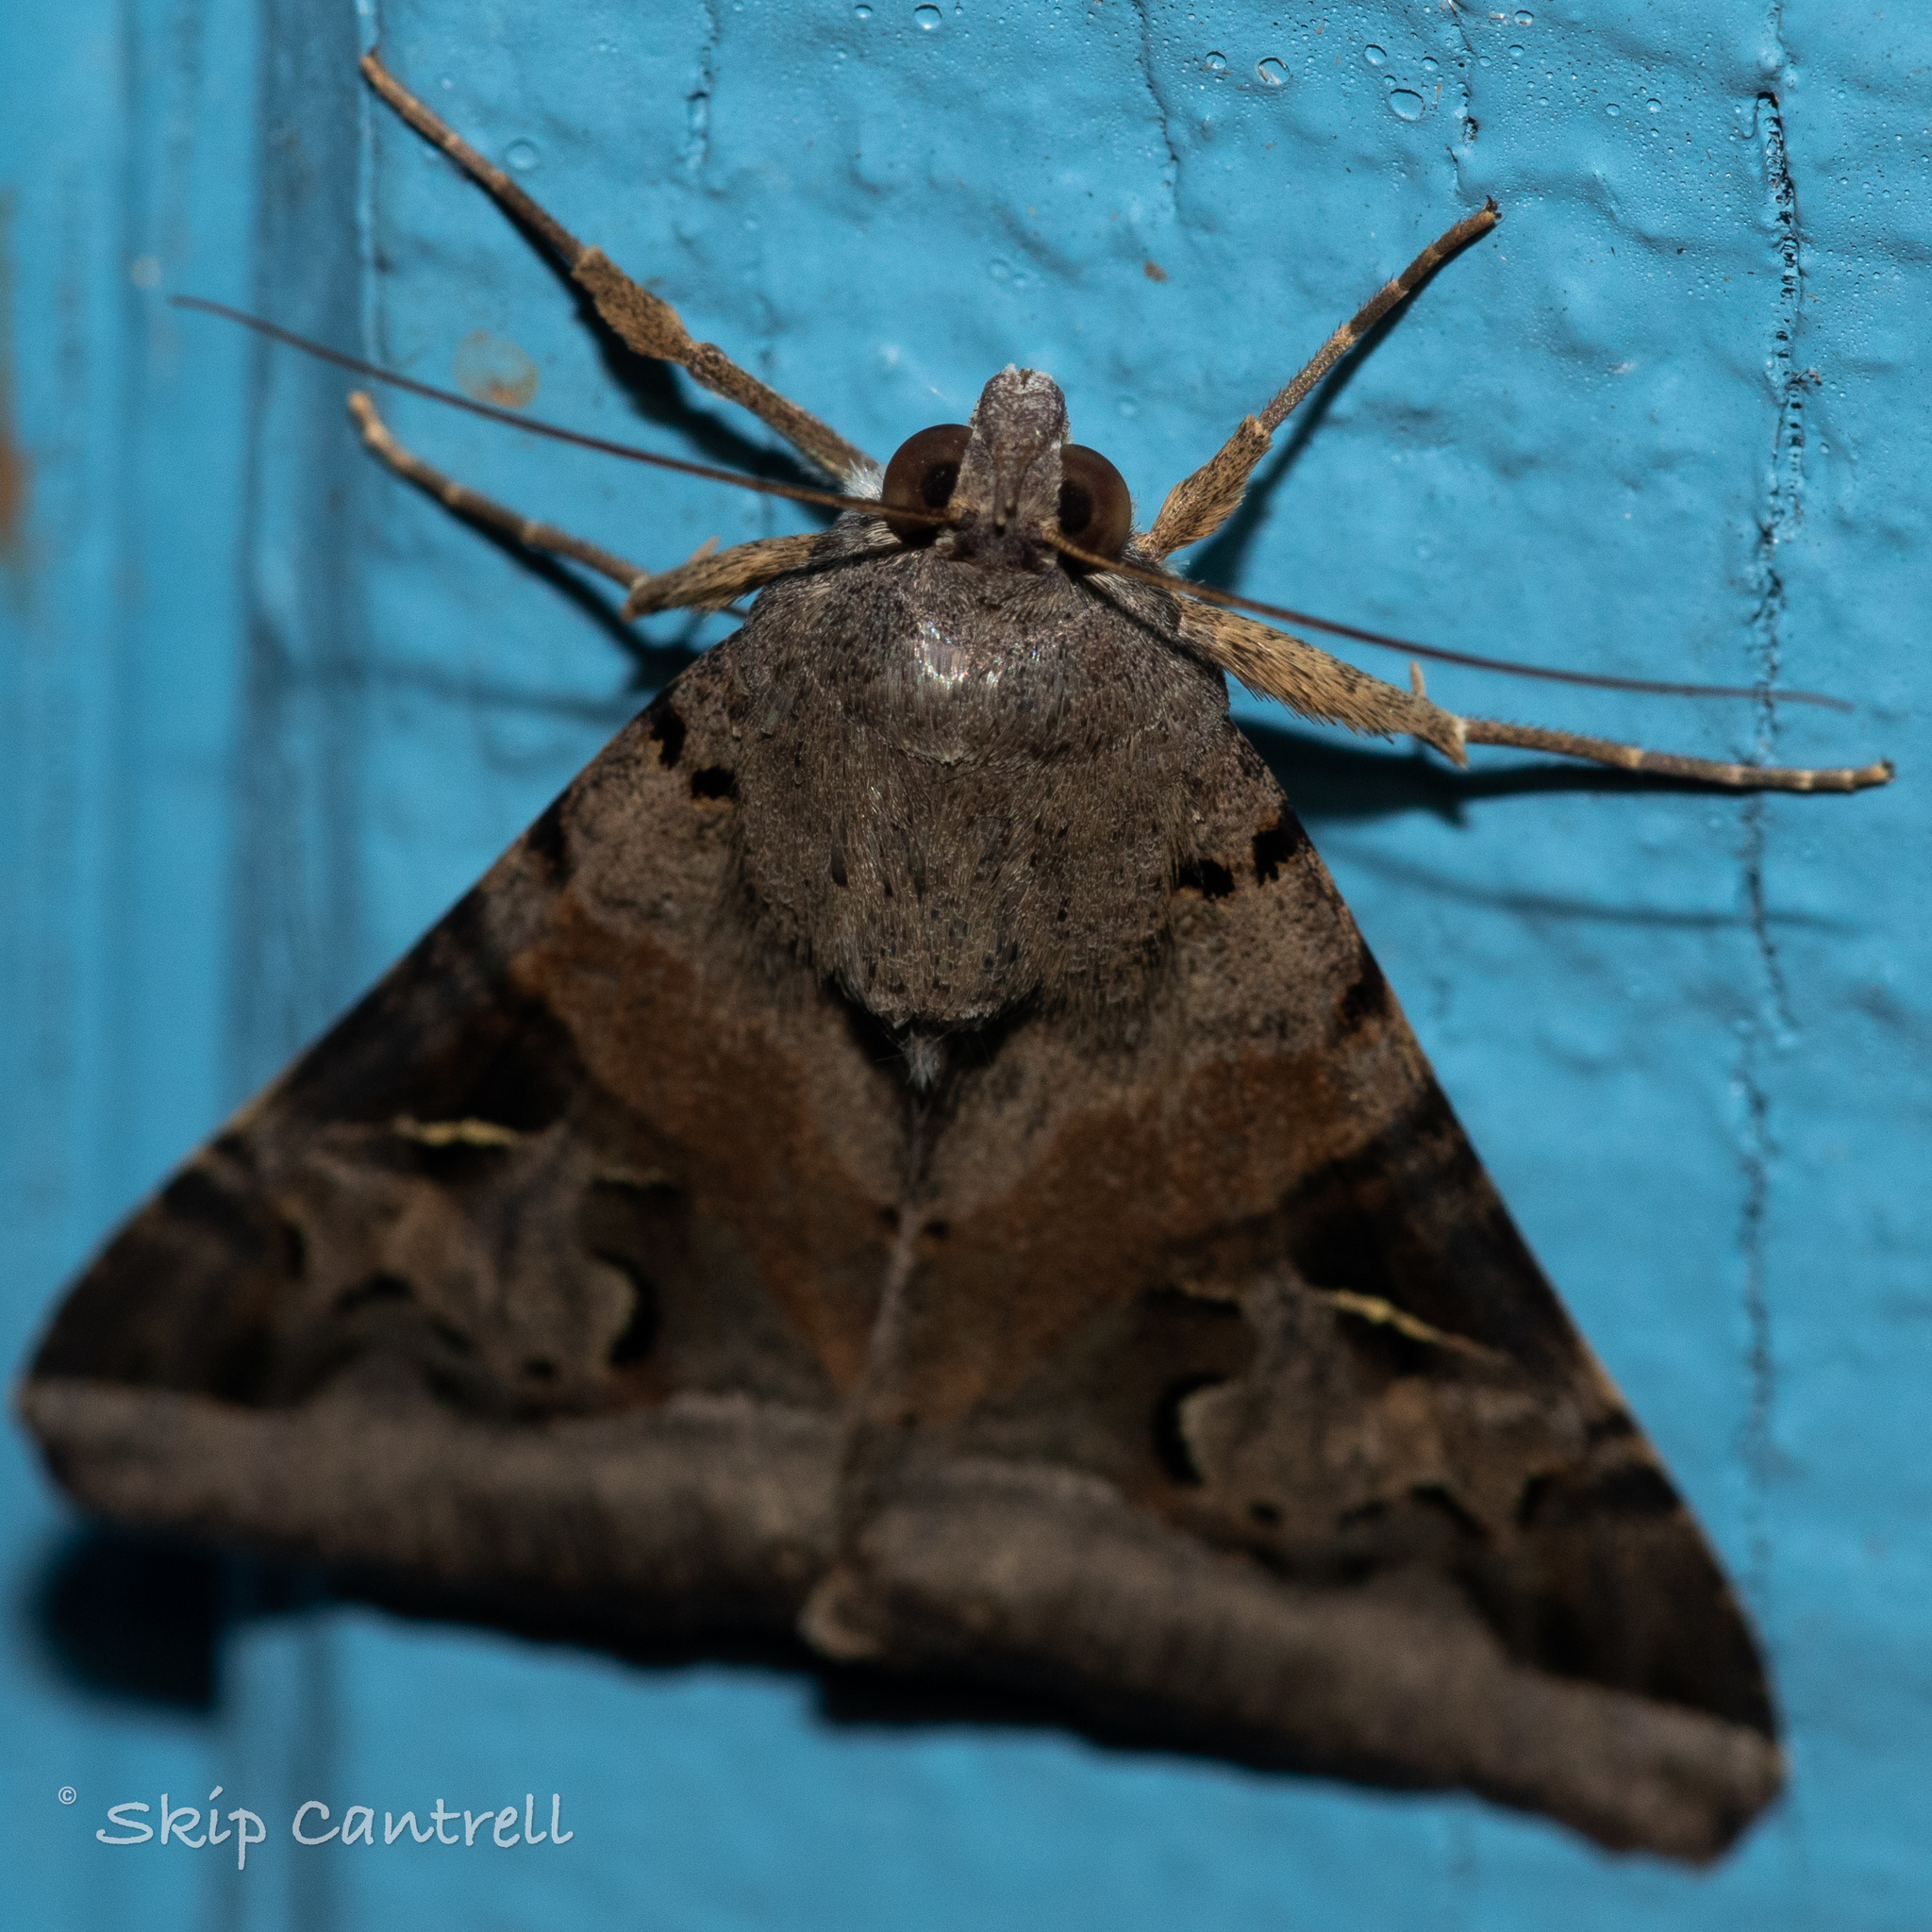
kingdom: Animalia
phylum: Arthropoda
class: Insecta
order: Lepidoptera
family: Erebidae
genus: Melipotis
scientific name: Melipotis indomita
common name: Moth
